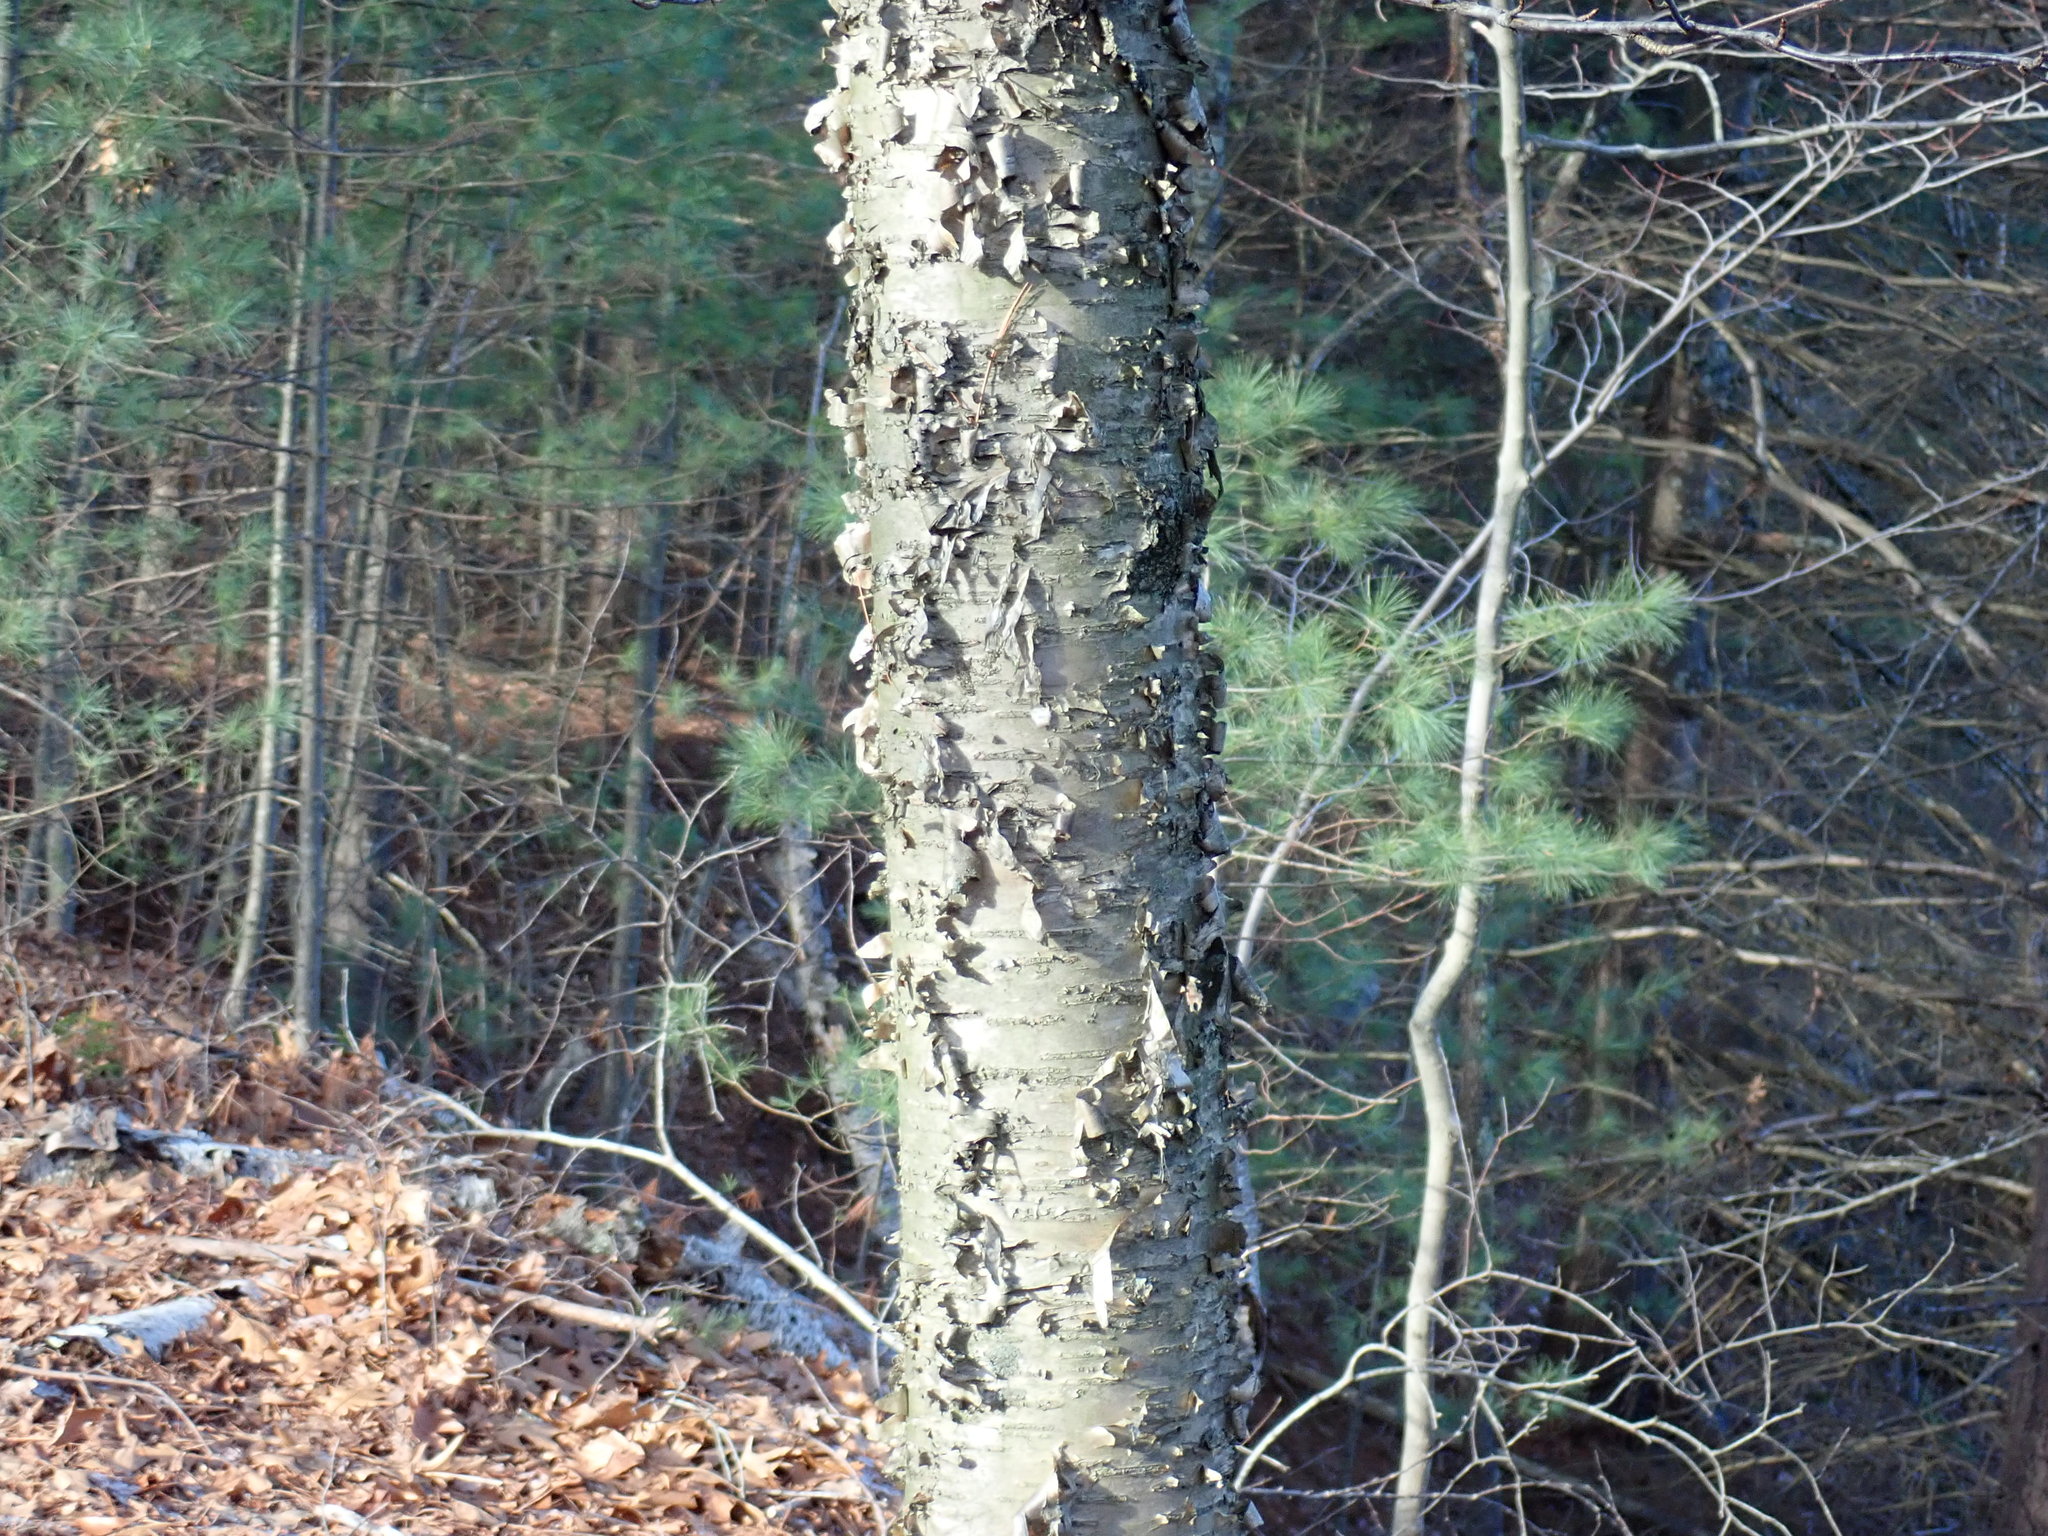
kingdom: Plantae
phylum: Tracheophyta
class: Magnoliopsida
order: Fagales
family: Betulaceae
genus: Betula
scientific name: Betula alleghaniensis
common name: Yellow birch
